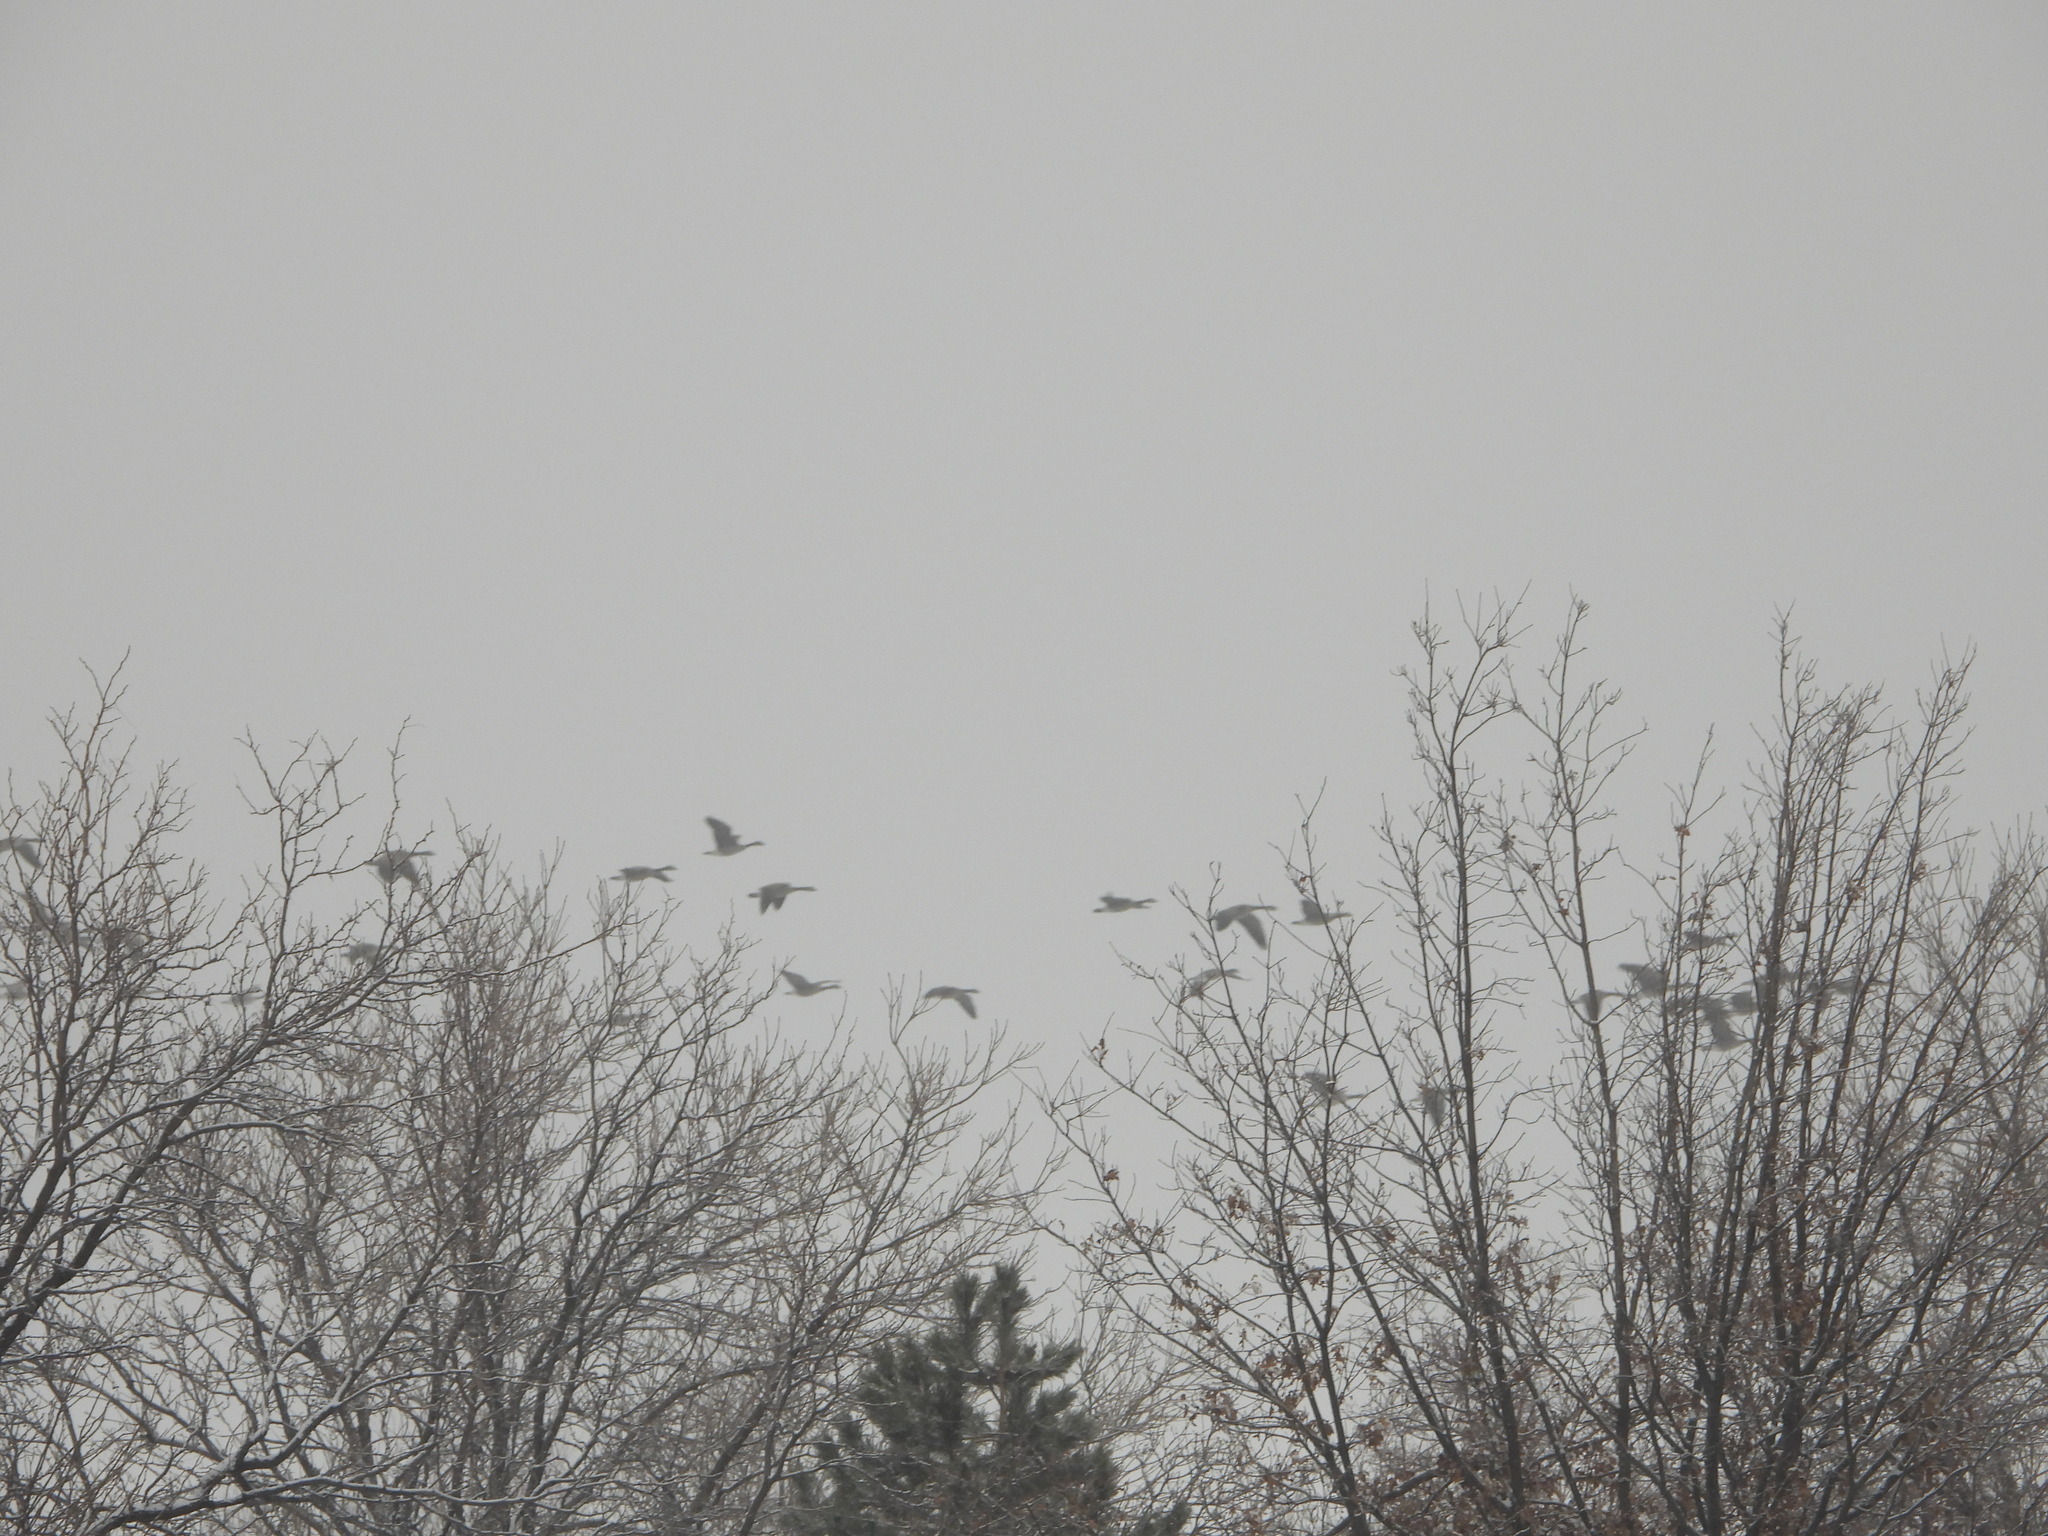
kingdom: Animalia
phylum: Chordata
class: Aves
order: Anseriformes
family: Anatidae
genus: Branta
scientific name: Branta canadensis
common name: Canada goose
